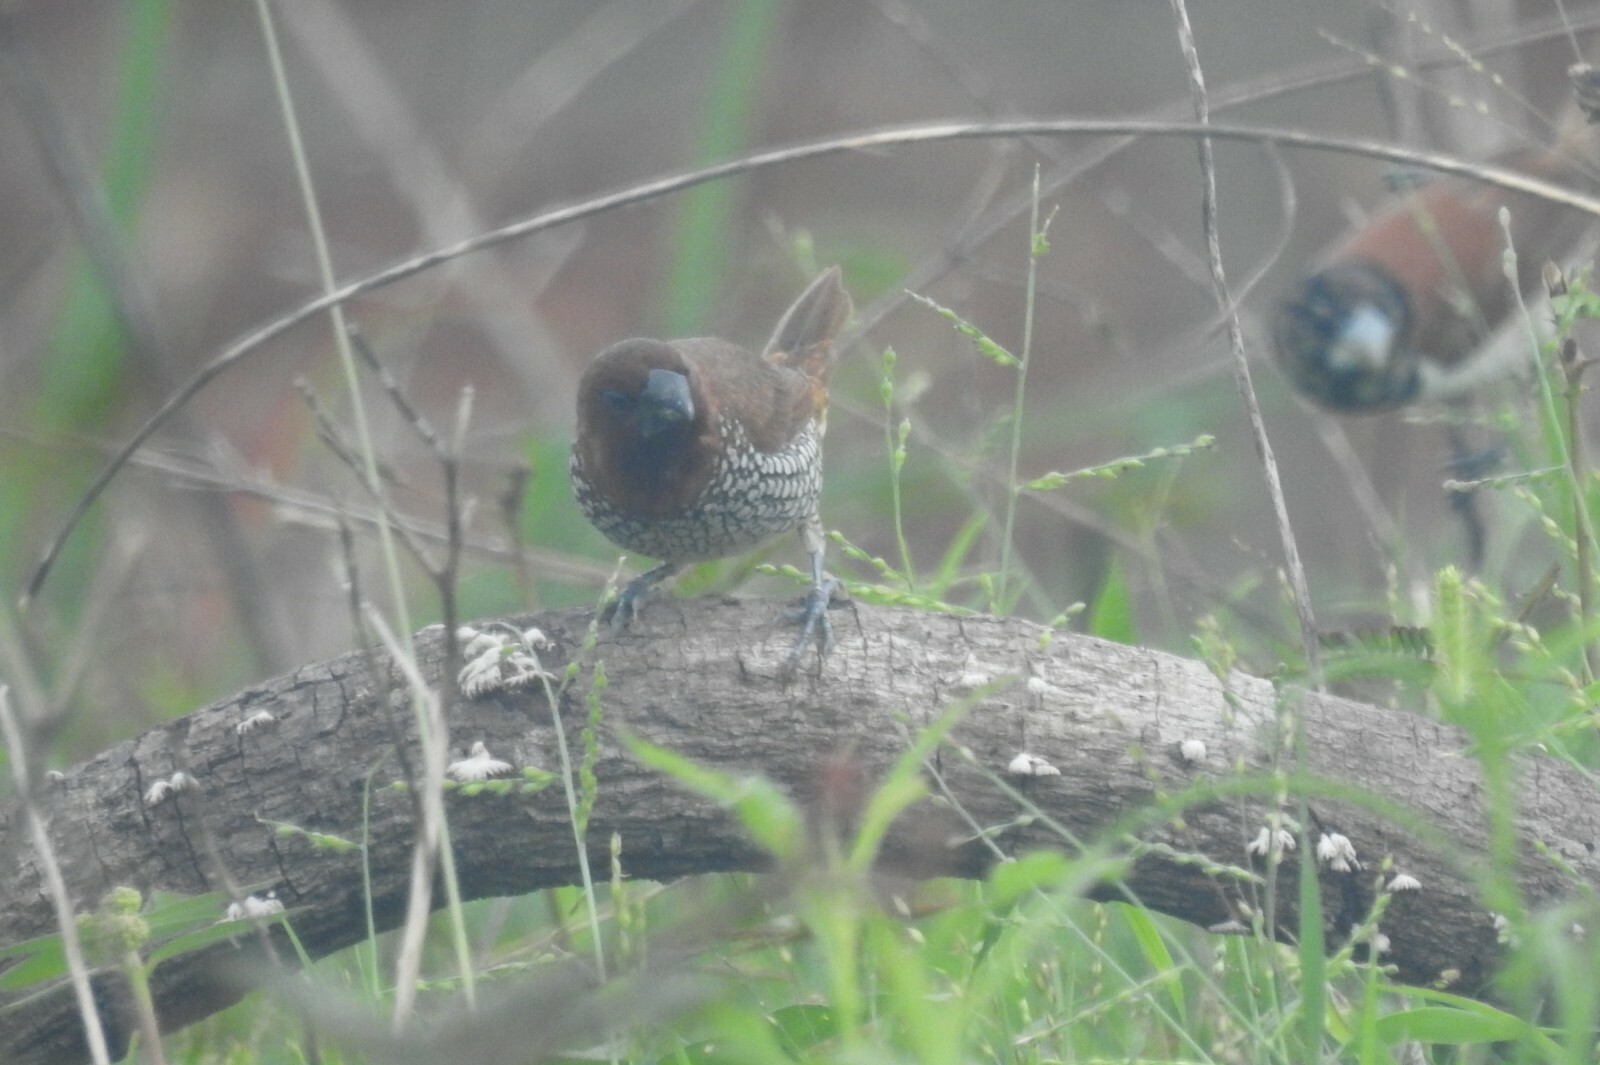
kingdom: Animalia
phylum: Chordata
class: Aves
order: Passeriformes
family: Estrildidae
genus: Lonchura
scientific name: Lonchura punctulata
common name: Scaly-breasted munia
